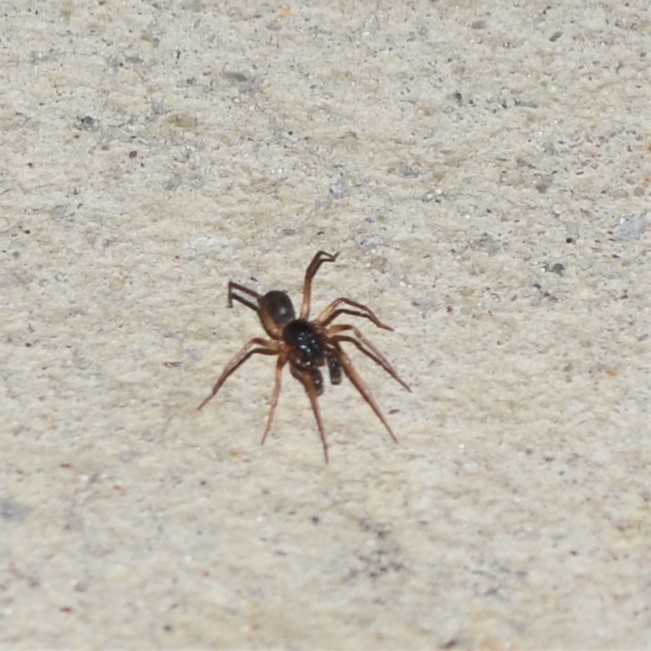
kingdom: Animalia
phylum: Arthropoda
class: Arachnida
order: Araneae
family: Corinnidae
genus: Falconina
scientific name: Falconina gracilis
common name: Antmimic spider
